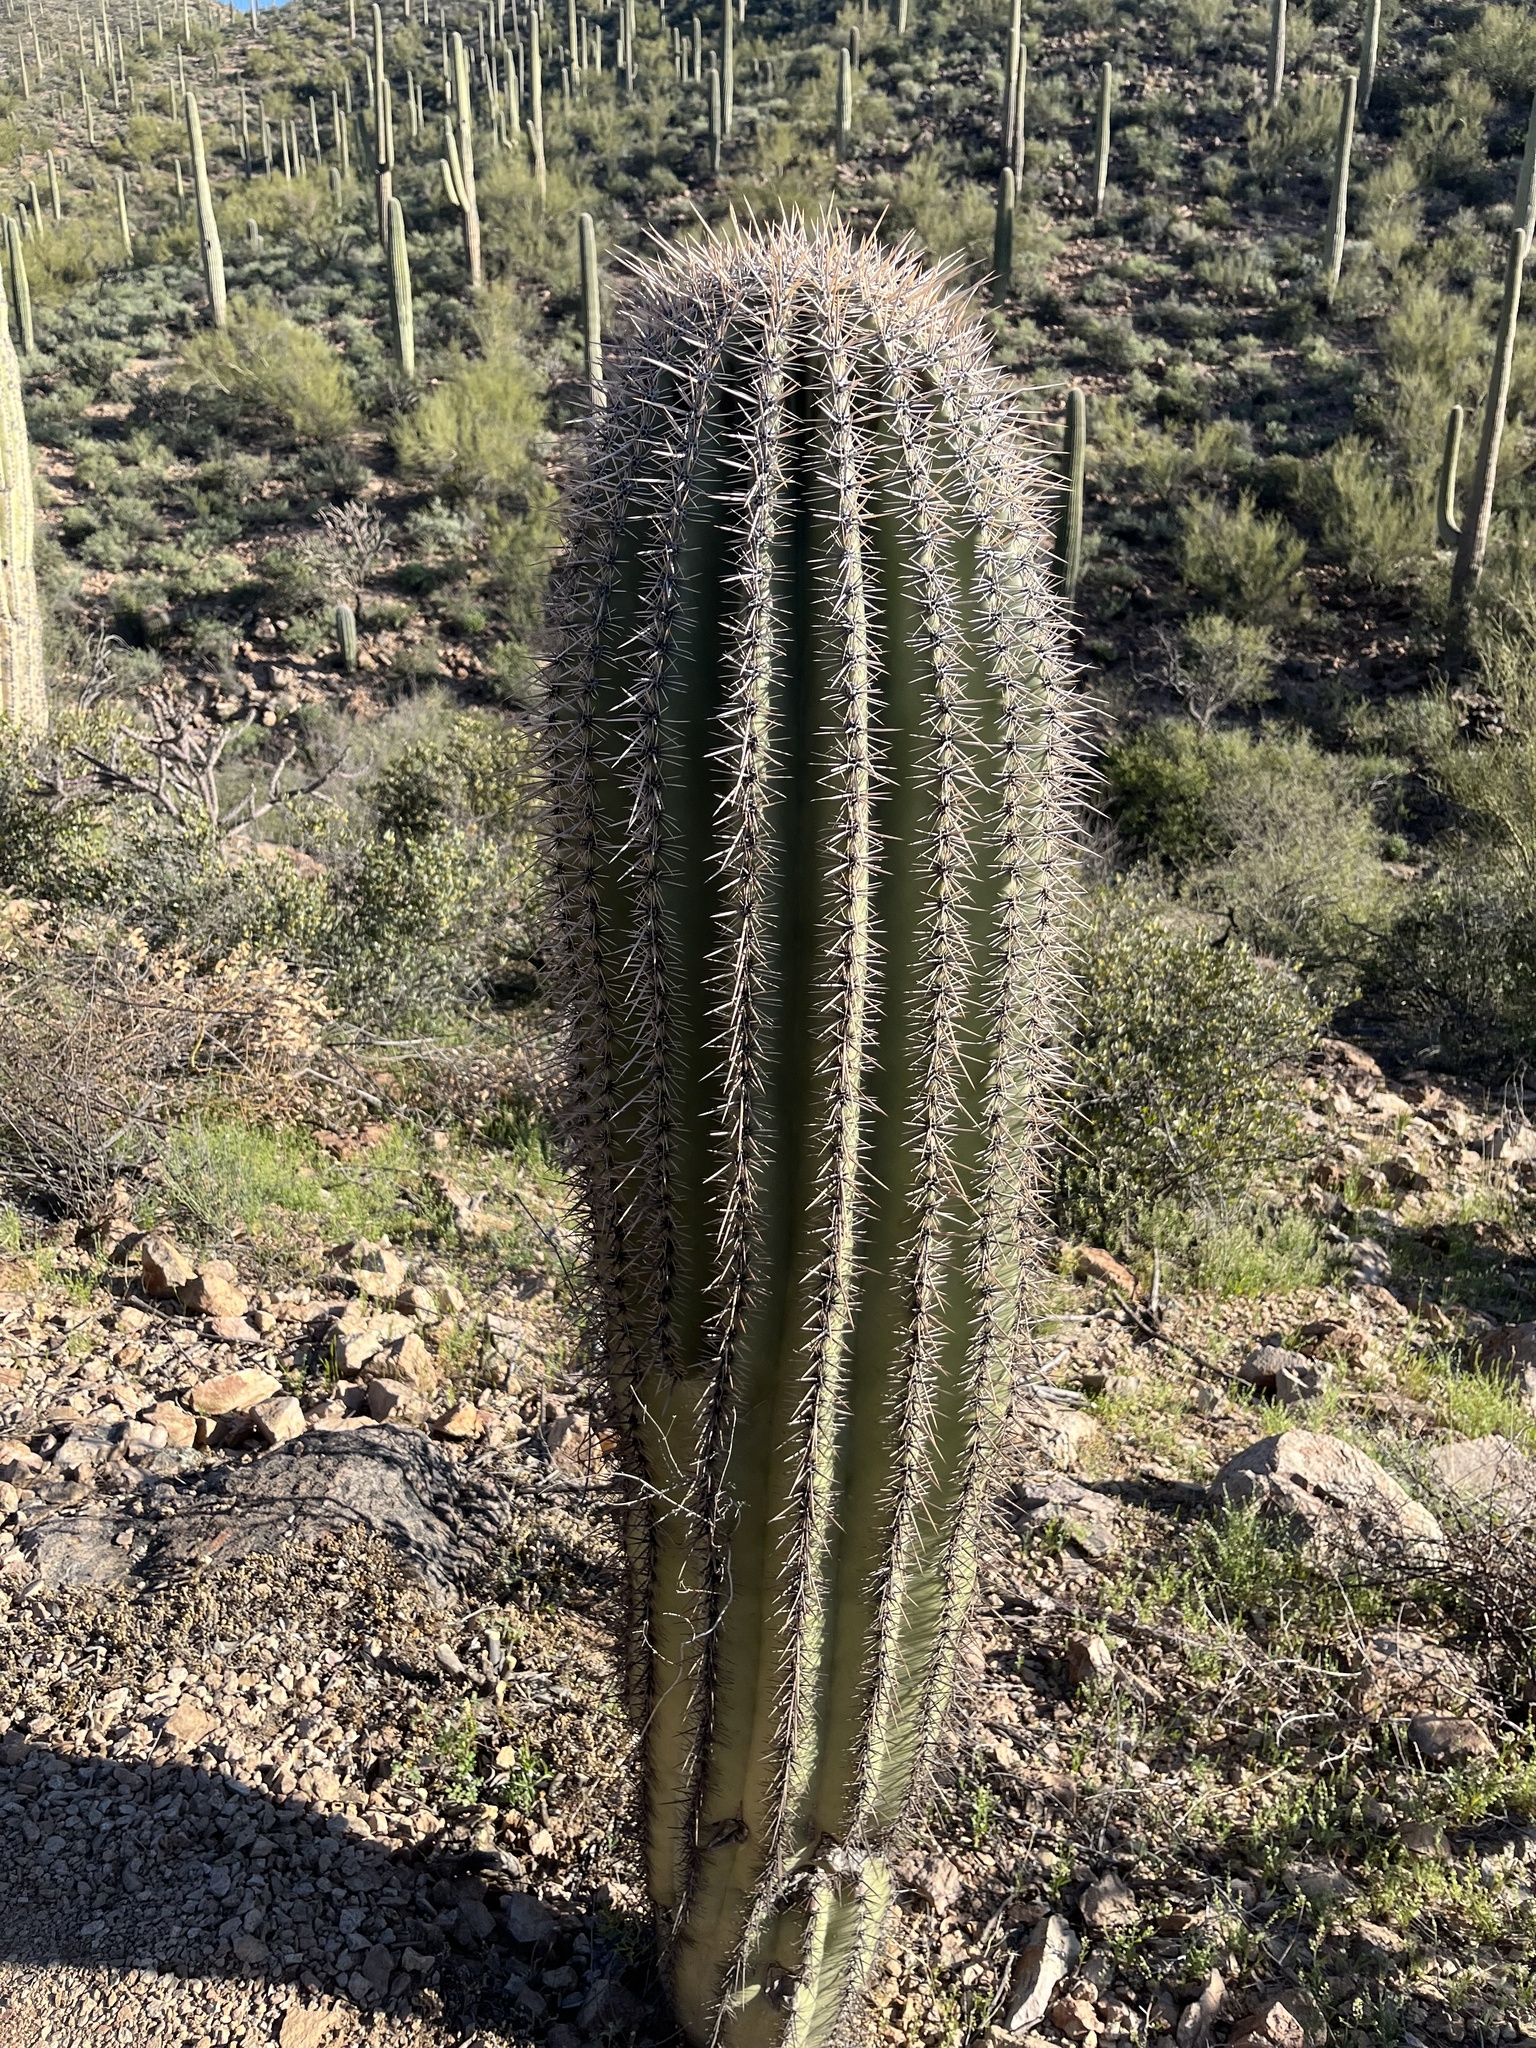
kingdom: Plantae
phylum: Tracheophyta
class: Magnoliopsida
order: Caryophyllales
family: Cactaceae
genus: Carnegiea
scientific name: Carnegiea gigantea
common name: Saguaro
